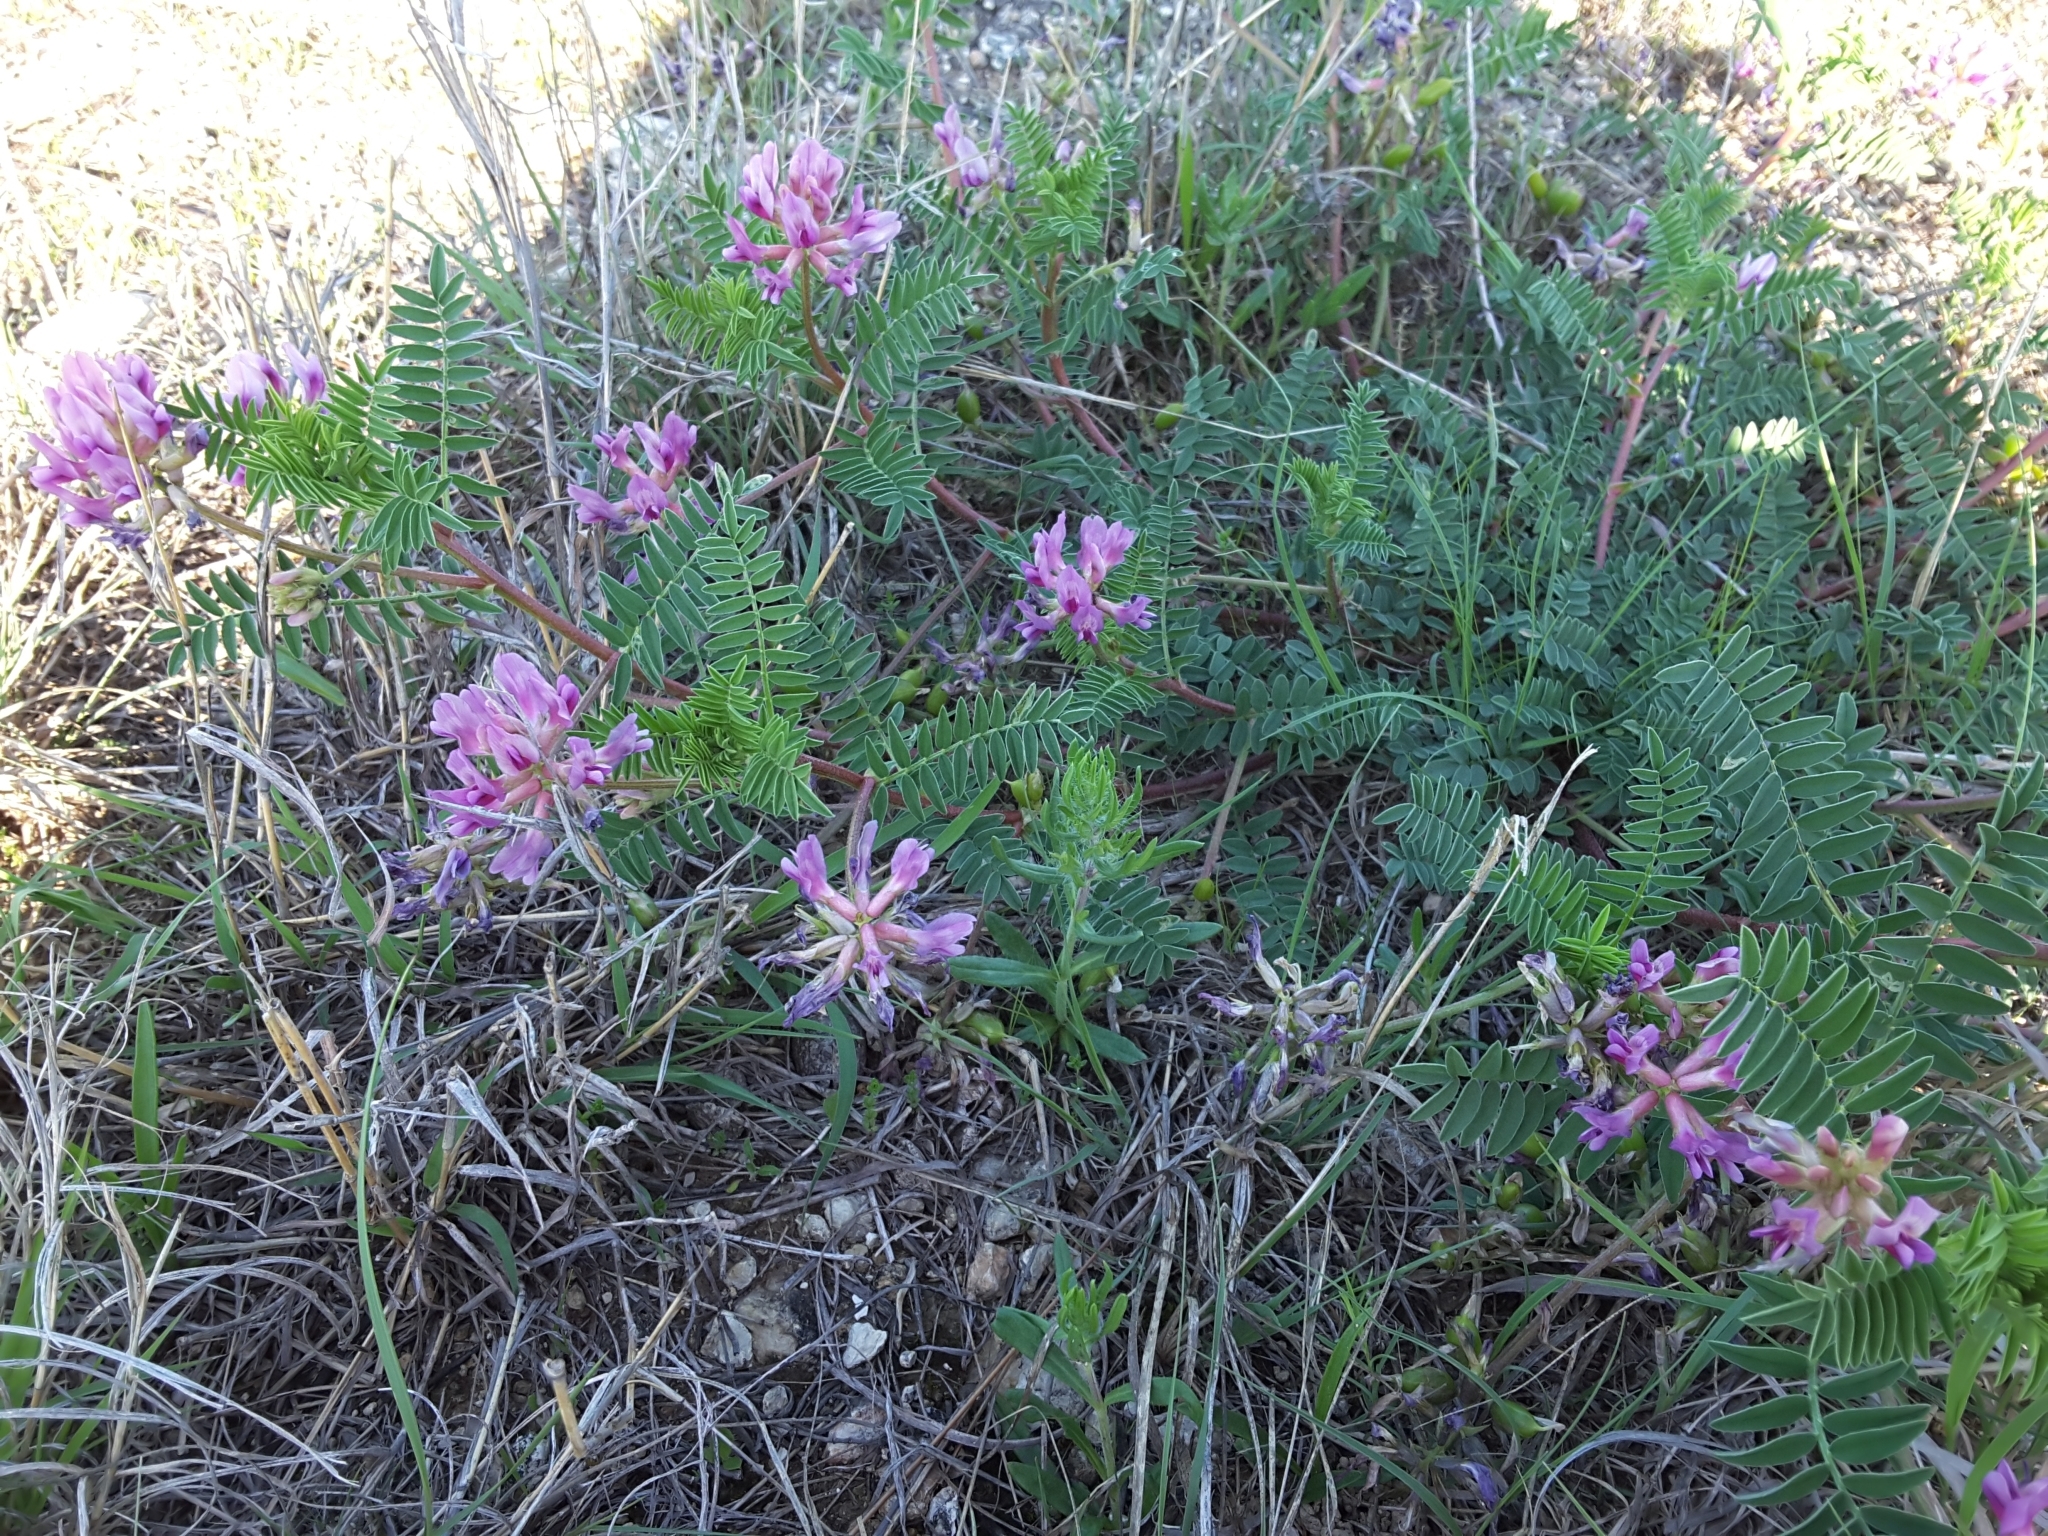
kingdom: Plantae
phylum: Tracheophyta
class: Magnoliopsida
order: Fabales
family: Fabaceae
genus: Astragalus
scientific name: Astragalus crassicarpus
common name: Ground-plum milk-vetch
